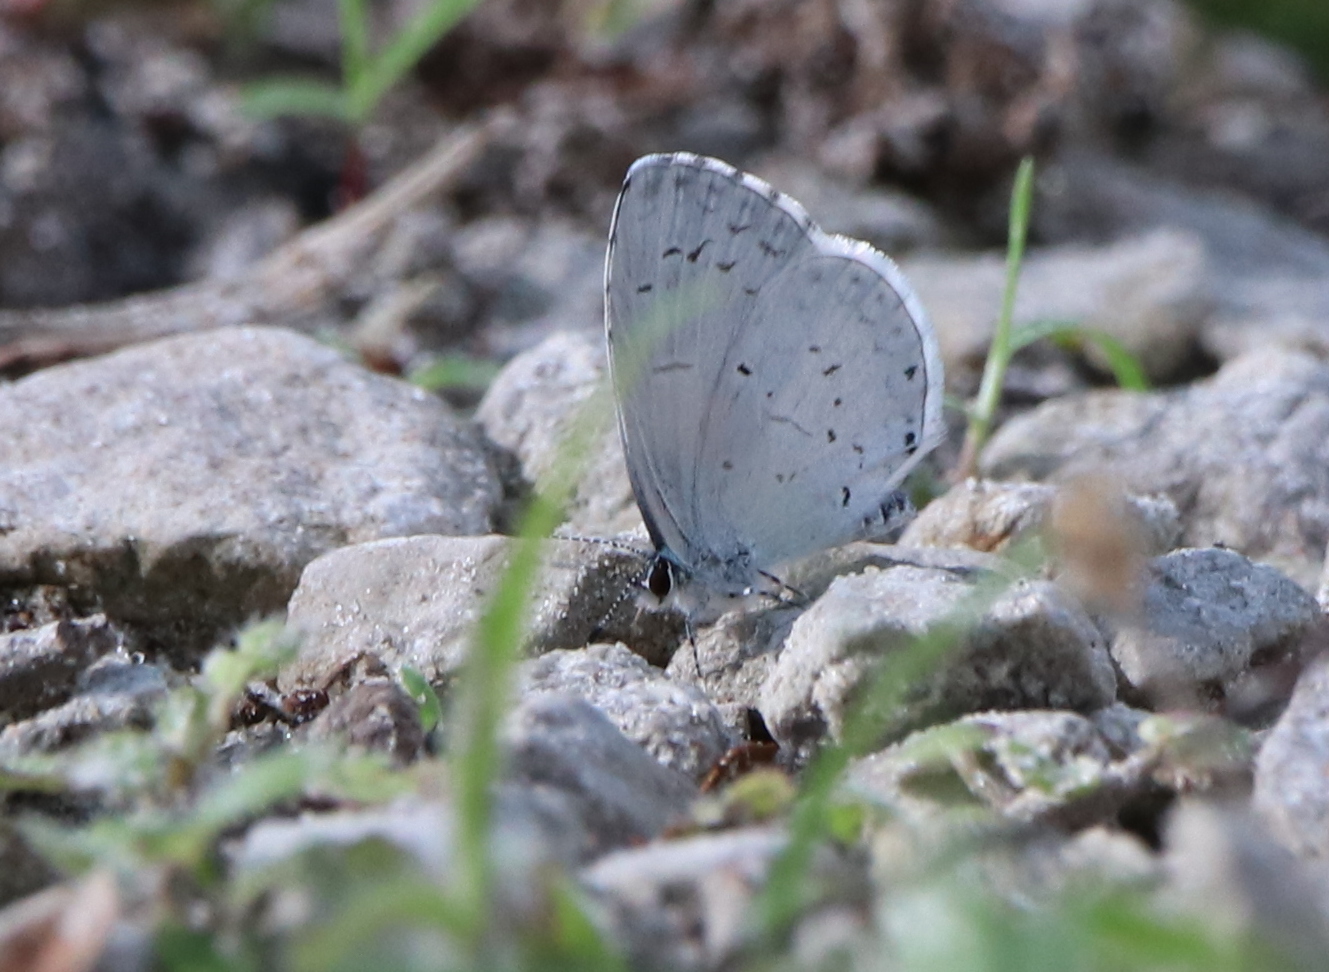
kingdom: Animalia
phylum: Arthropoda
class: Insecta
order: Lepidoptera
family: Lycaenidae
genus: Cyaniris
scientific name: Cyaniris neglecta
